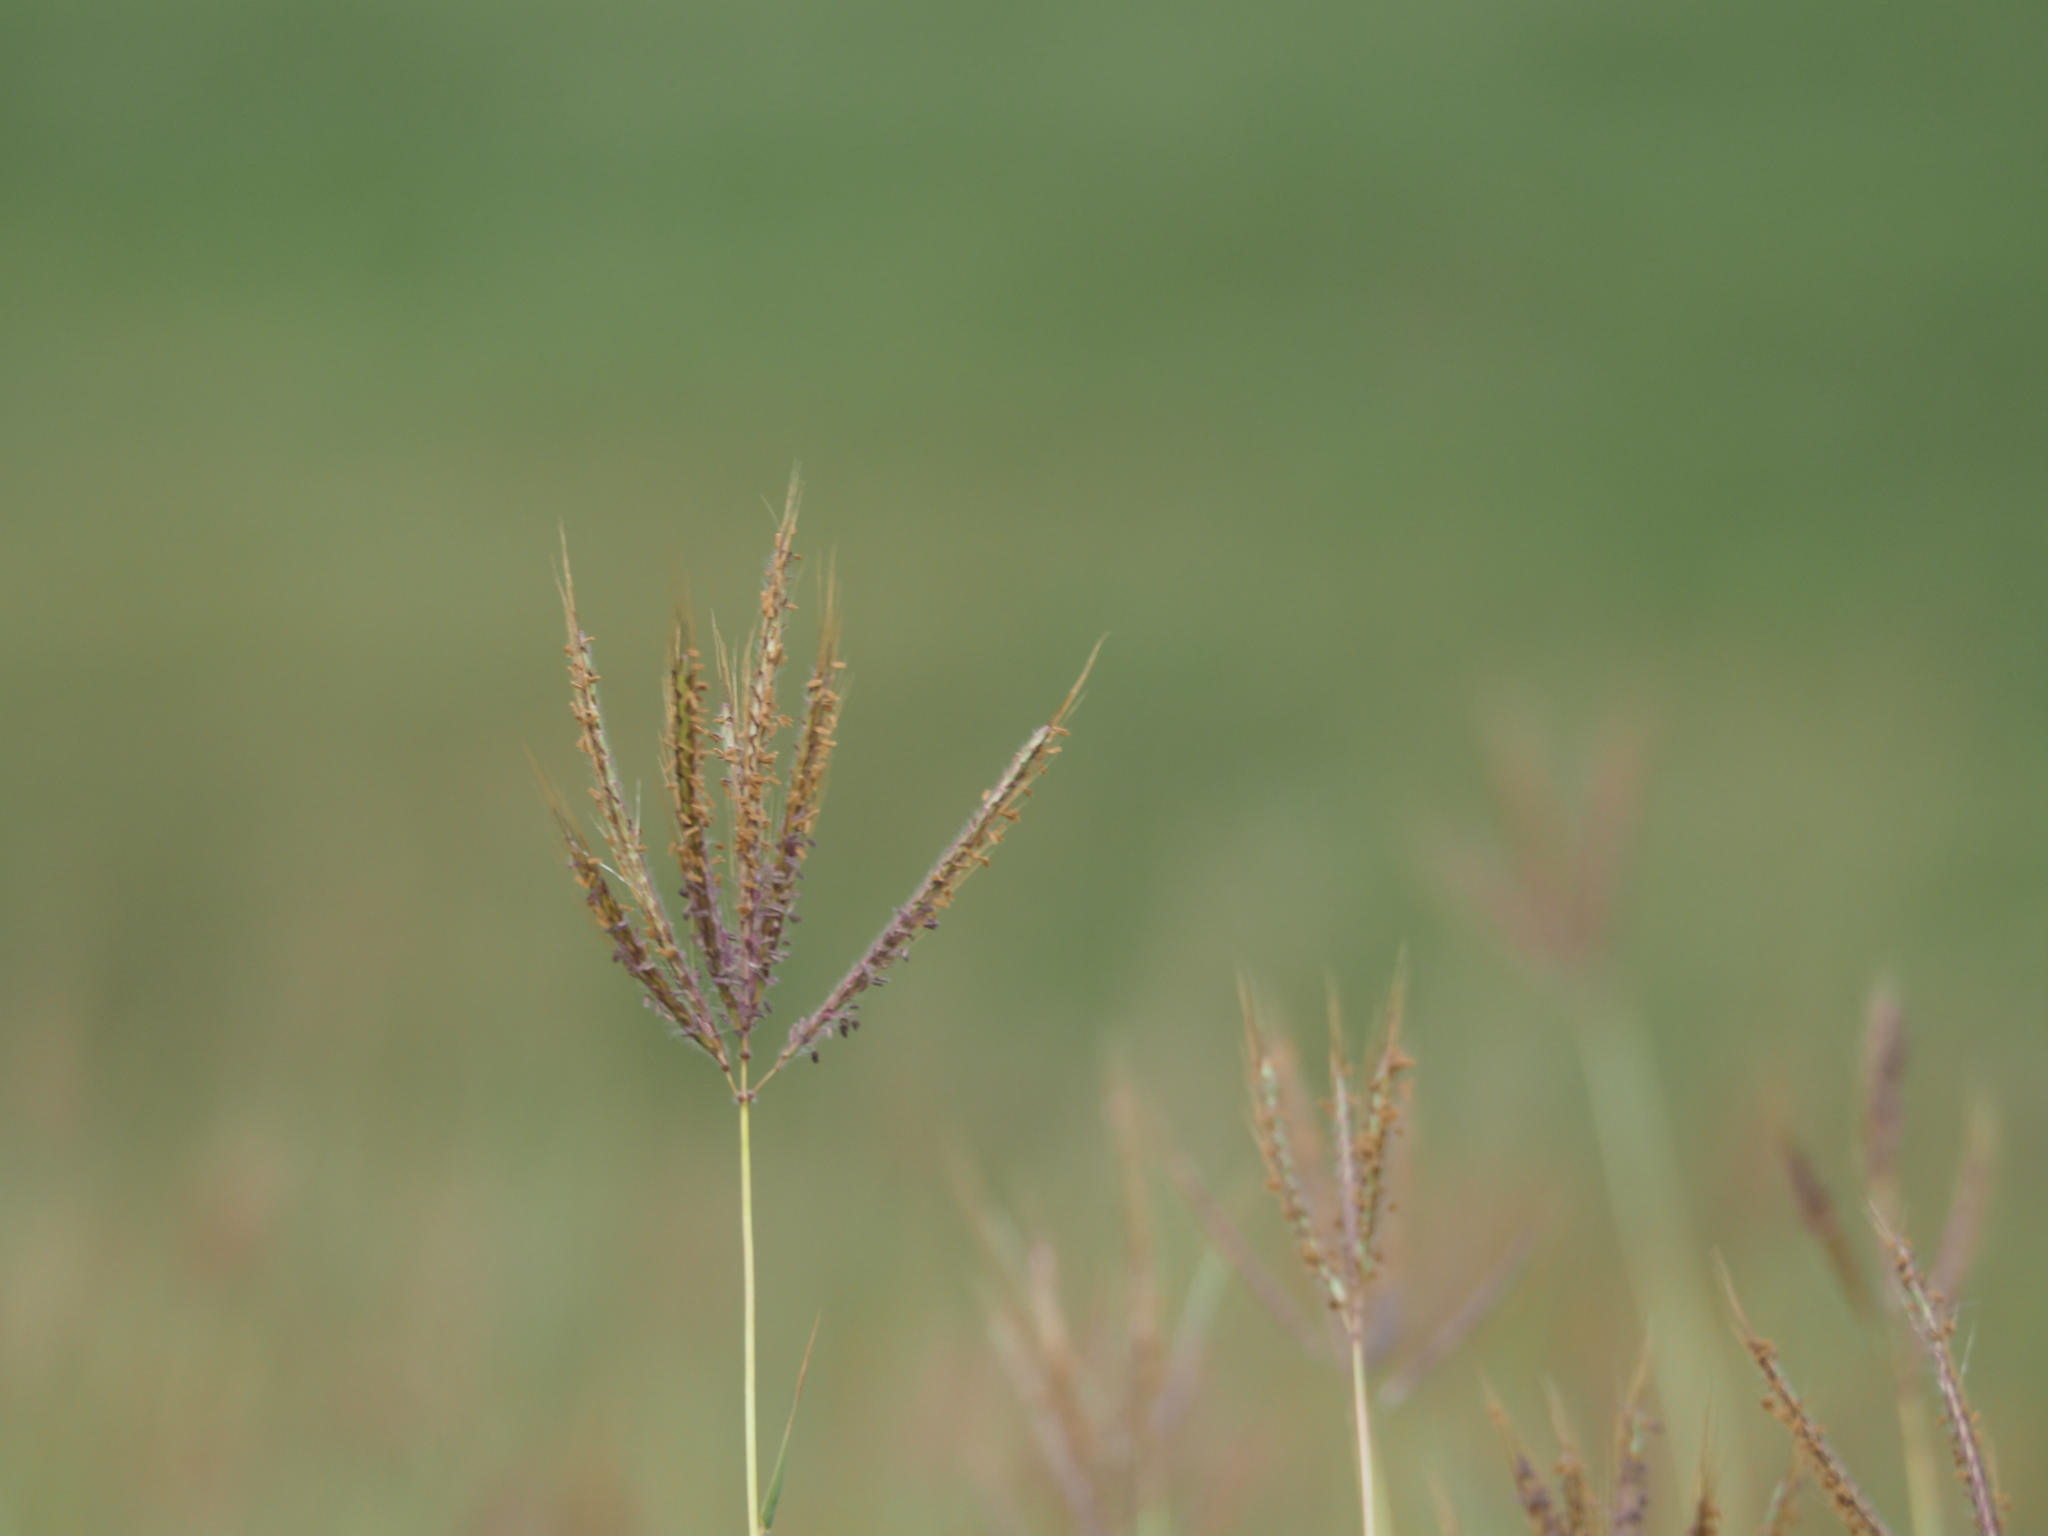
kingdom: Plantae
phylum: Tracheophyta
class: Liliopsida
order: Poales
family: Poaceae
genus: Dichanthium
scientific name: Dichanthium annulatum
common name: Kleberg's bluestem
